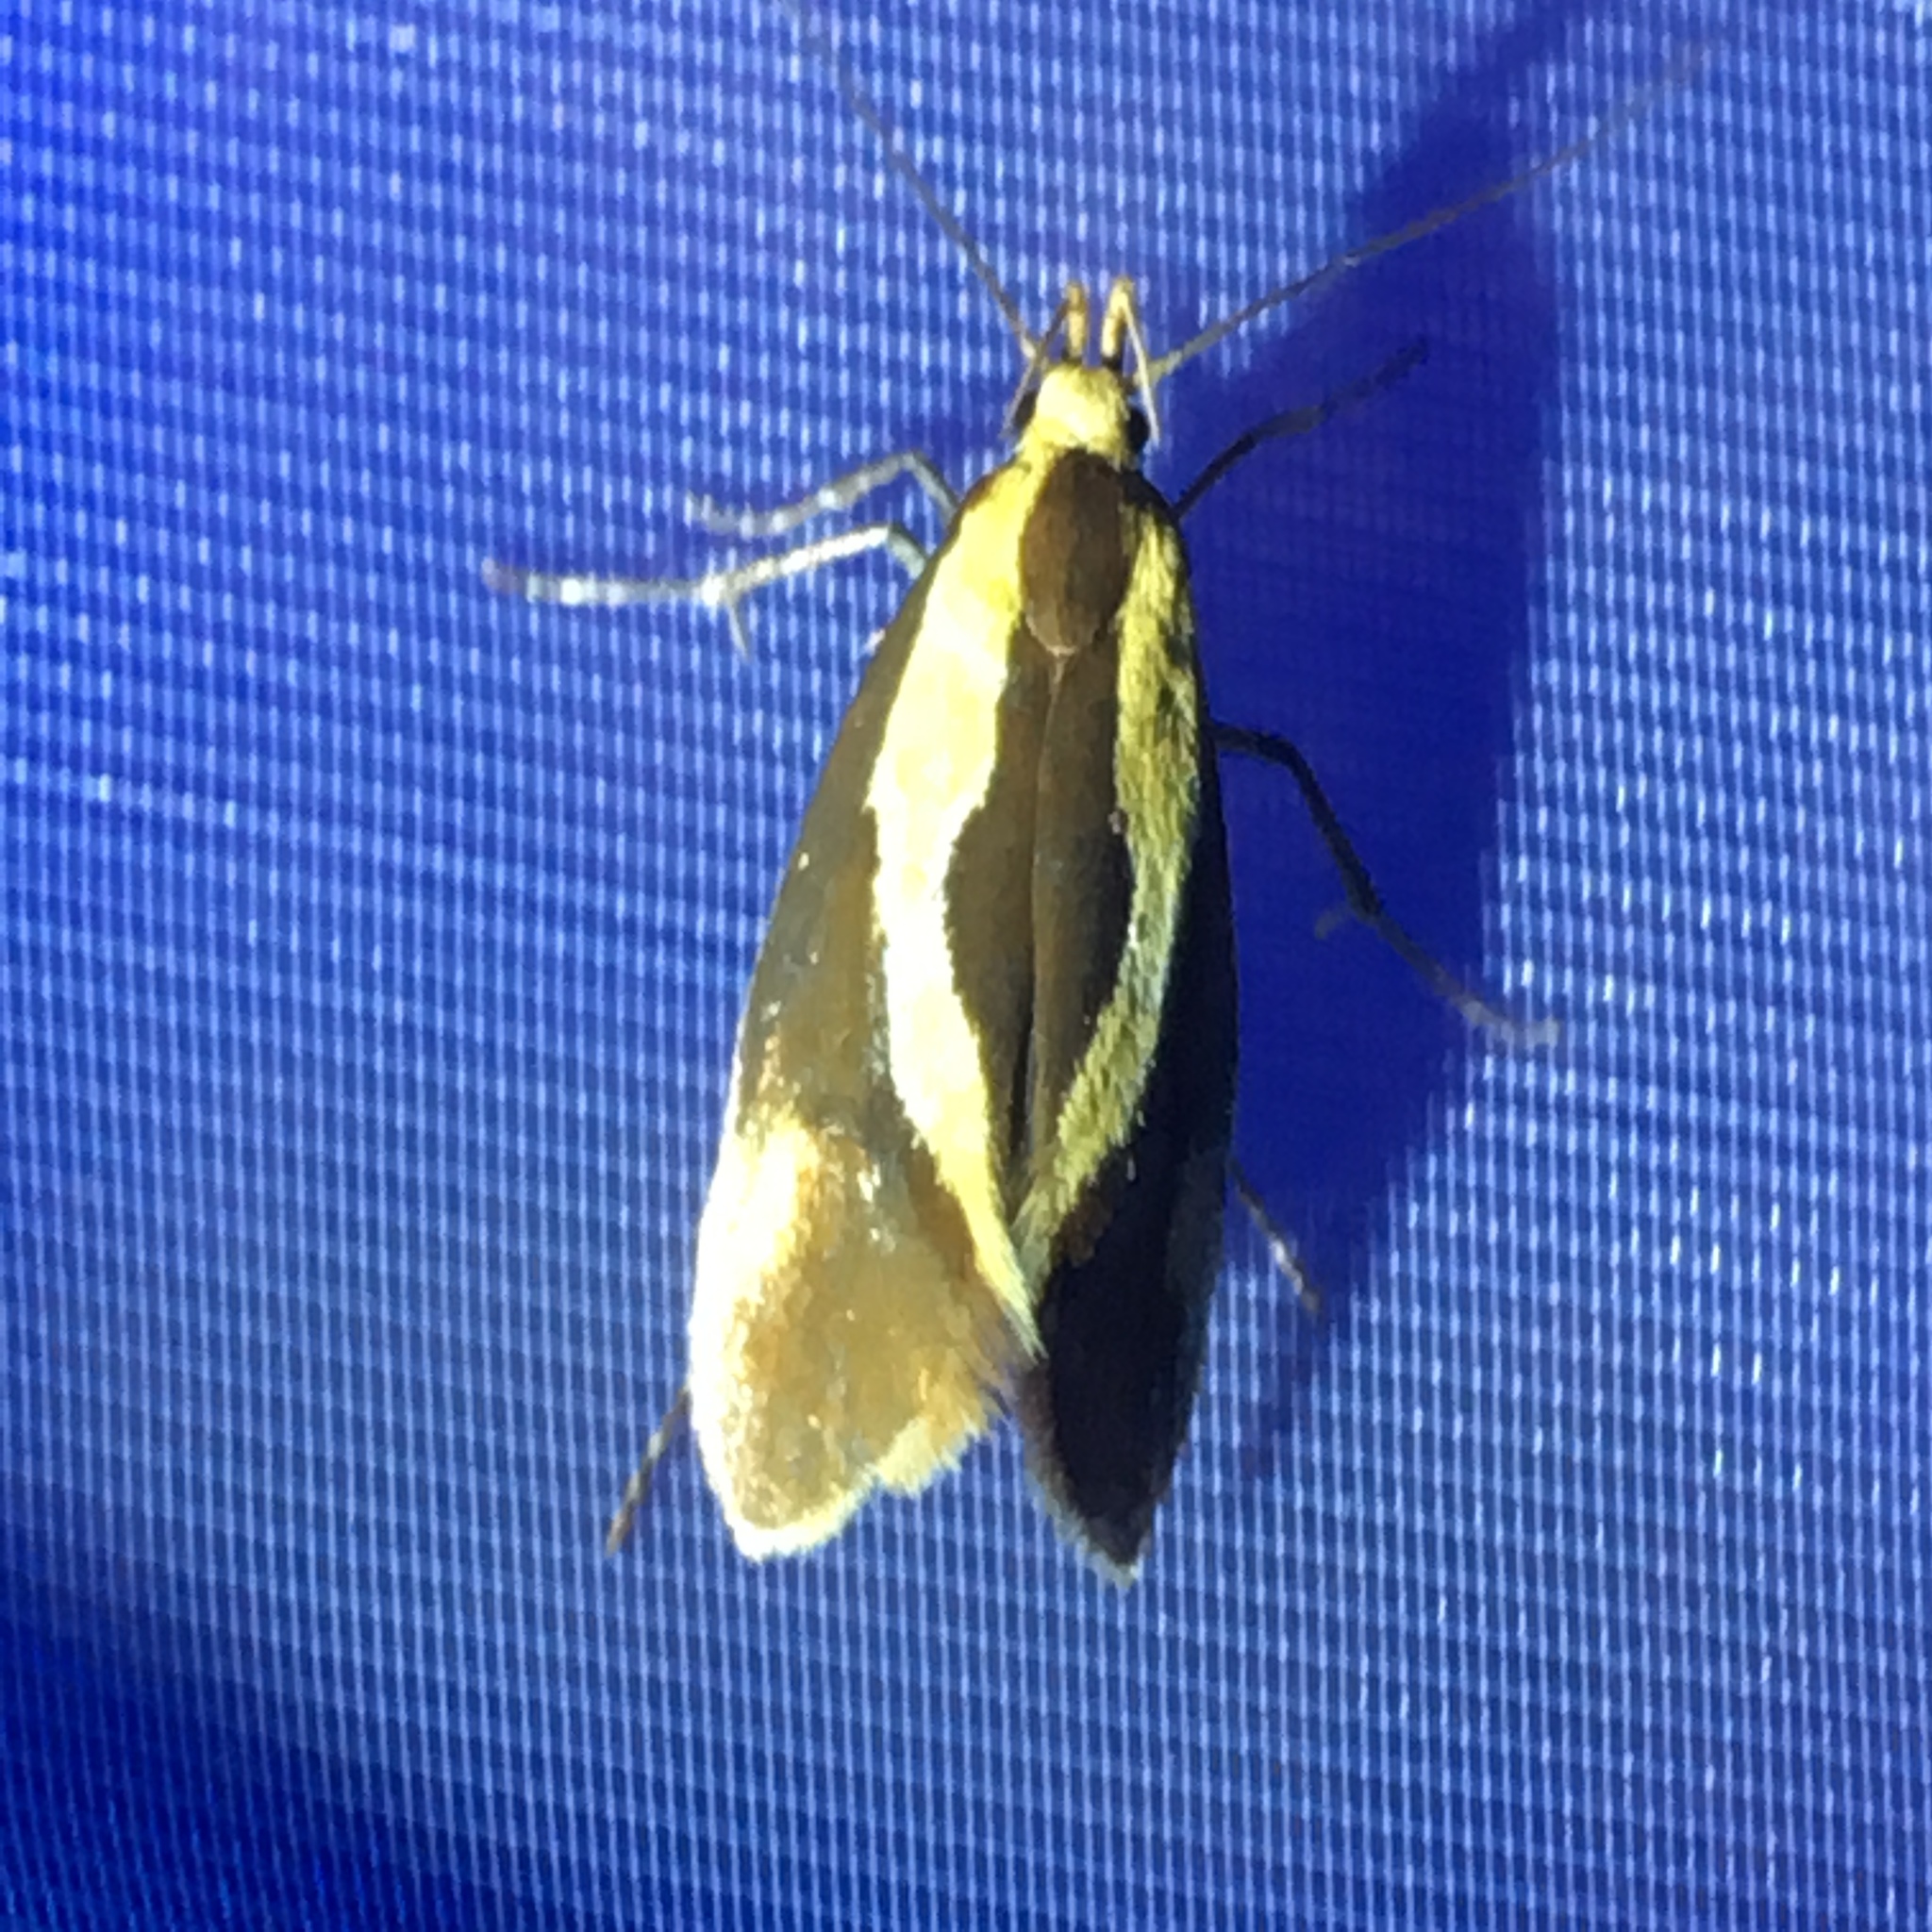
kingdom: Animalia
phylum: Arthropoda
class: Insecta
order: Lepidoptera
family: Oecophoridae
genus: Harpella
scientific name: Harpella forficella
